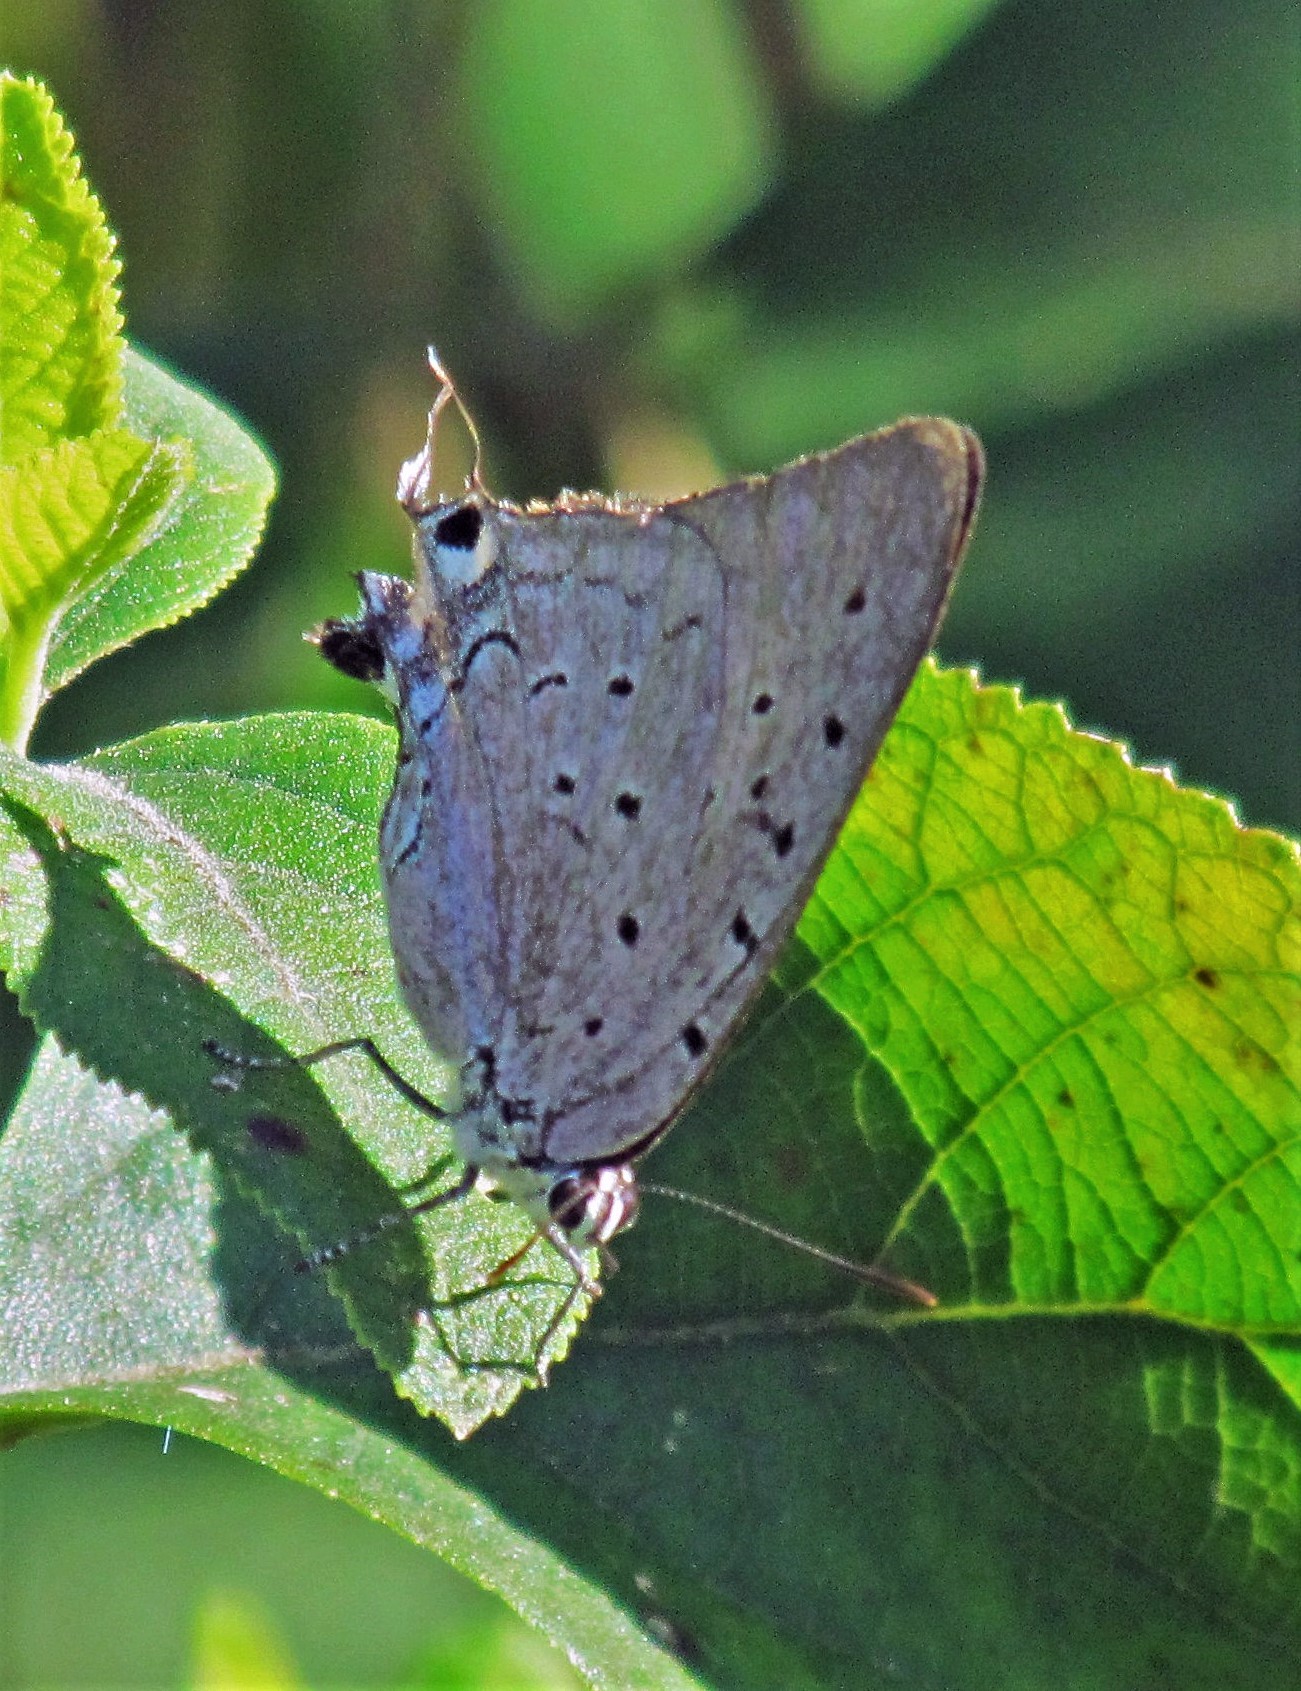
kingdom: Animalia
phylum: Arthropoda
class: Insecta
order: Lepidoptera
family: Lycaenidae
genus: Pseudolycaena
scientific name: Pseudolycaena marsyas
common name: Marsyas hairstreak
